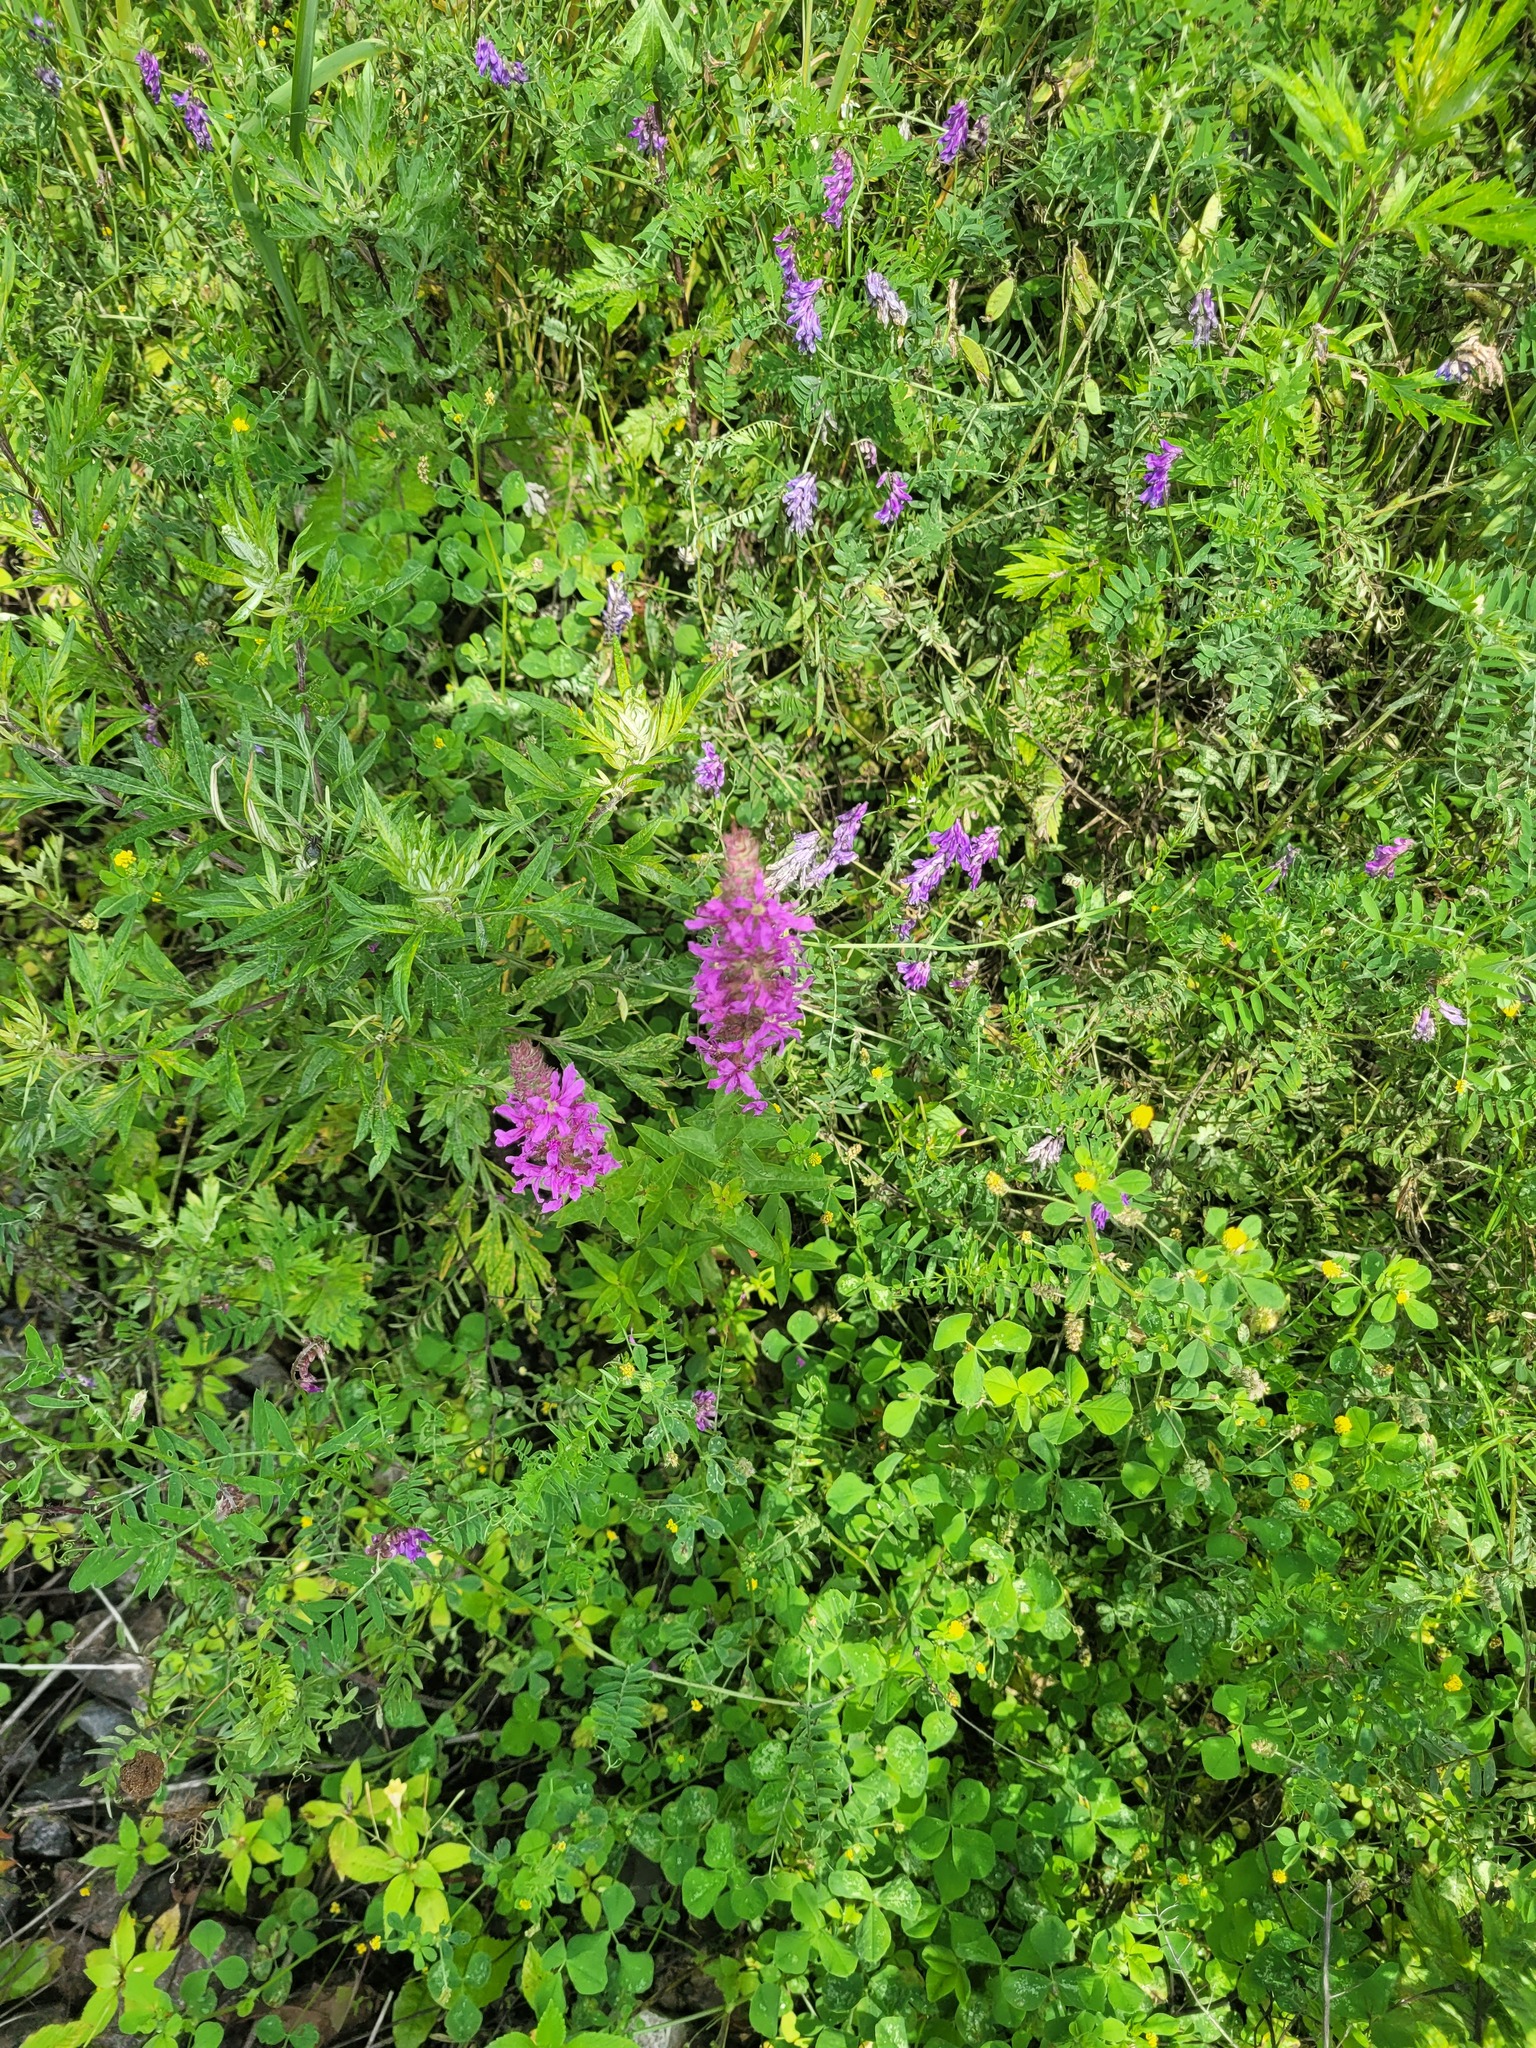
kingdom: Plantae
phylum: Tracheophyta
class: Magnoliopsida
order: Myrtales
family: Lythraceae
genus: Lythrum
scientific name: Lythrum salicaria
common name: Purple loosestrife
